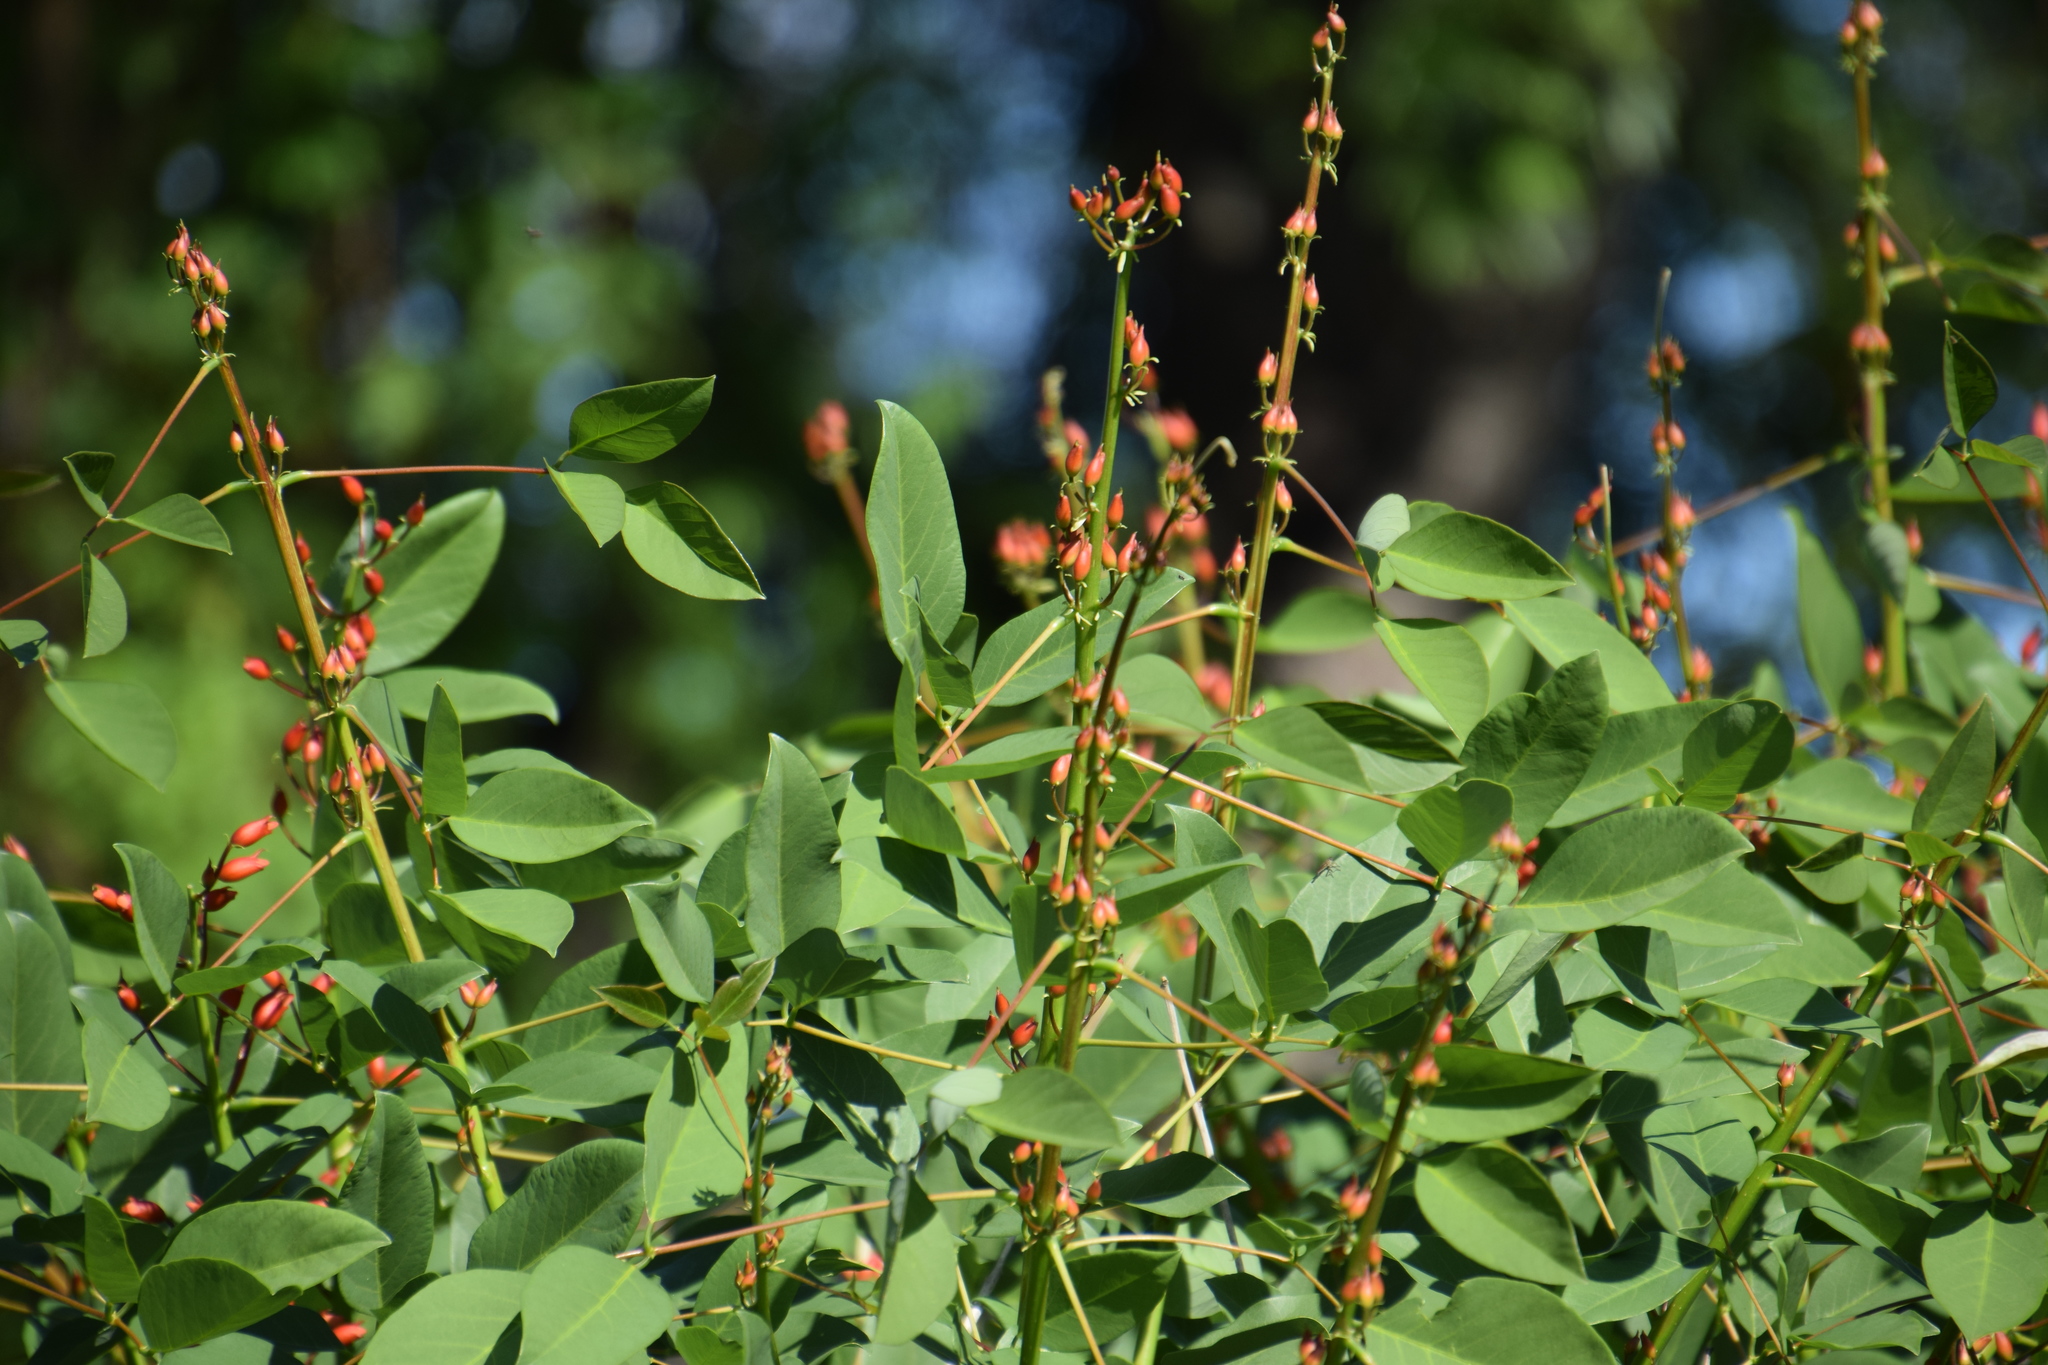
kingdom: Plantae
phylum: Tracheophyta
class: Magnoliopsida
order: Fabales
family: Fabaceae
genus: Erythrina
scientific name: Erythrina crista-galli
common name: Cockspur coral tree
